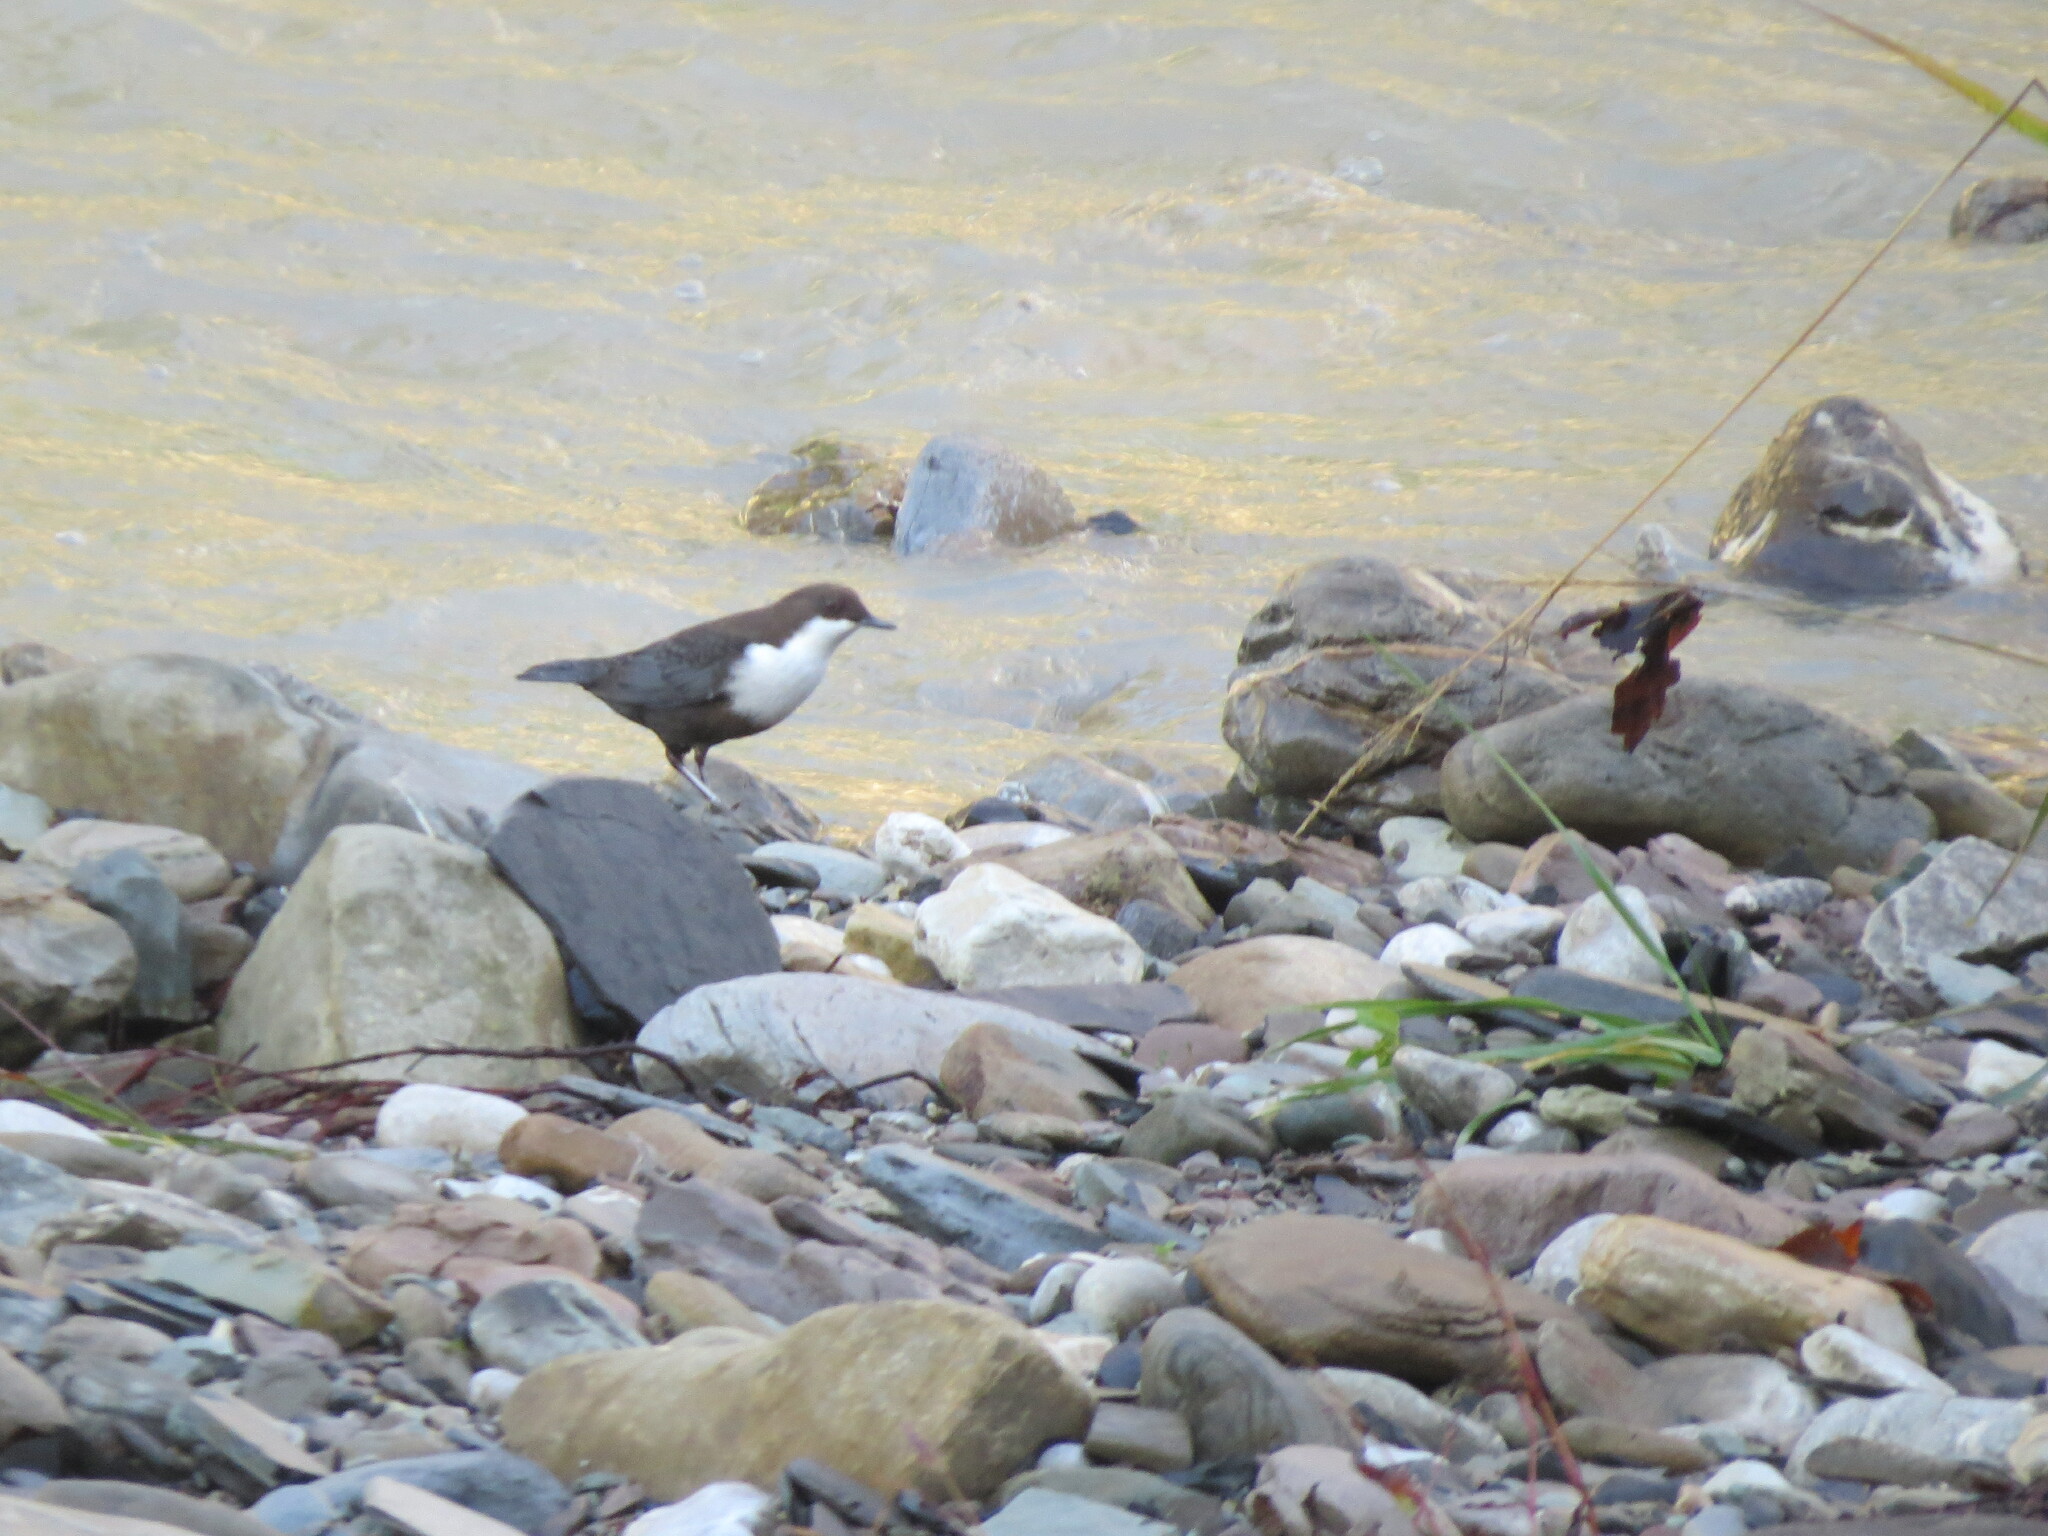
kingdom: Animalia
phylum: Chordata
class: Aves
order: Passeriformes
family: Cinclidae
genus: Cinclus
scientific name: Cinclus cinclus
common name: White-throated dipper
